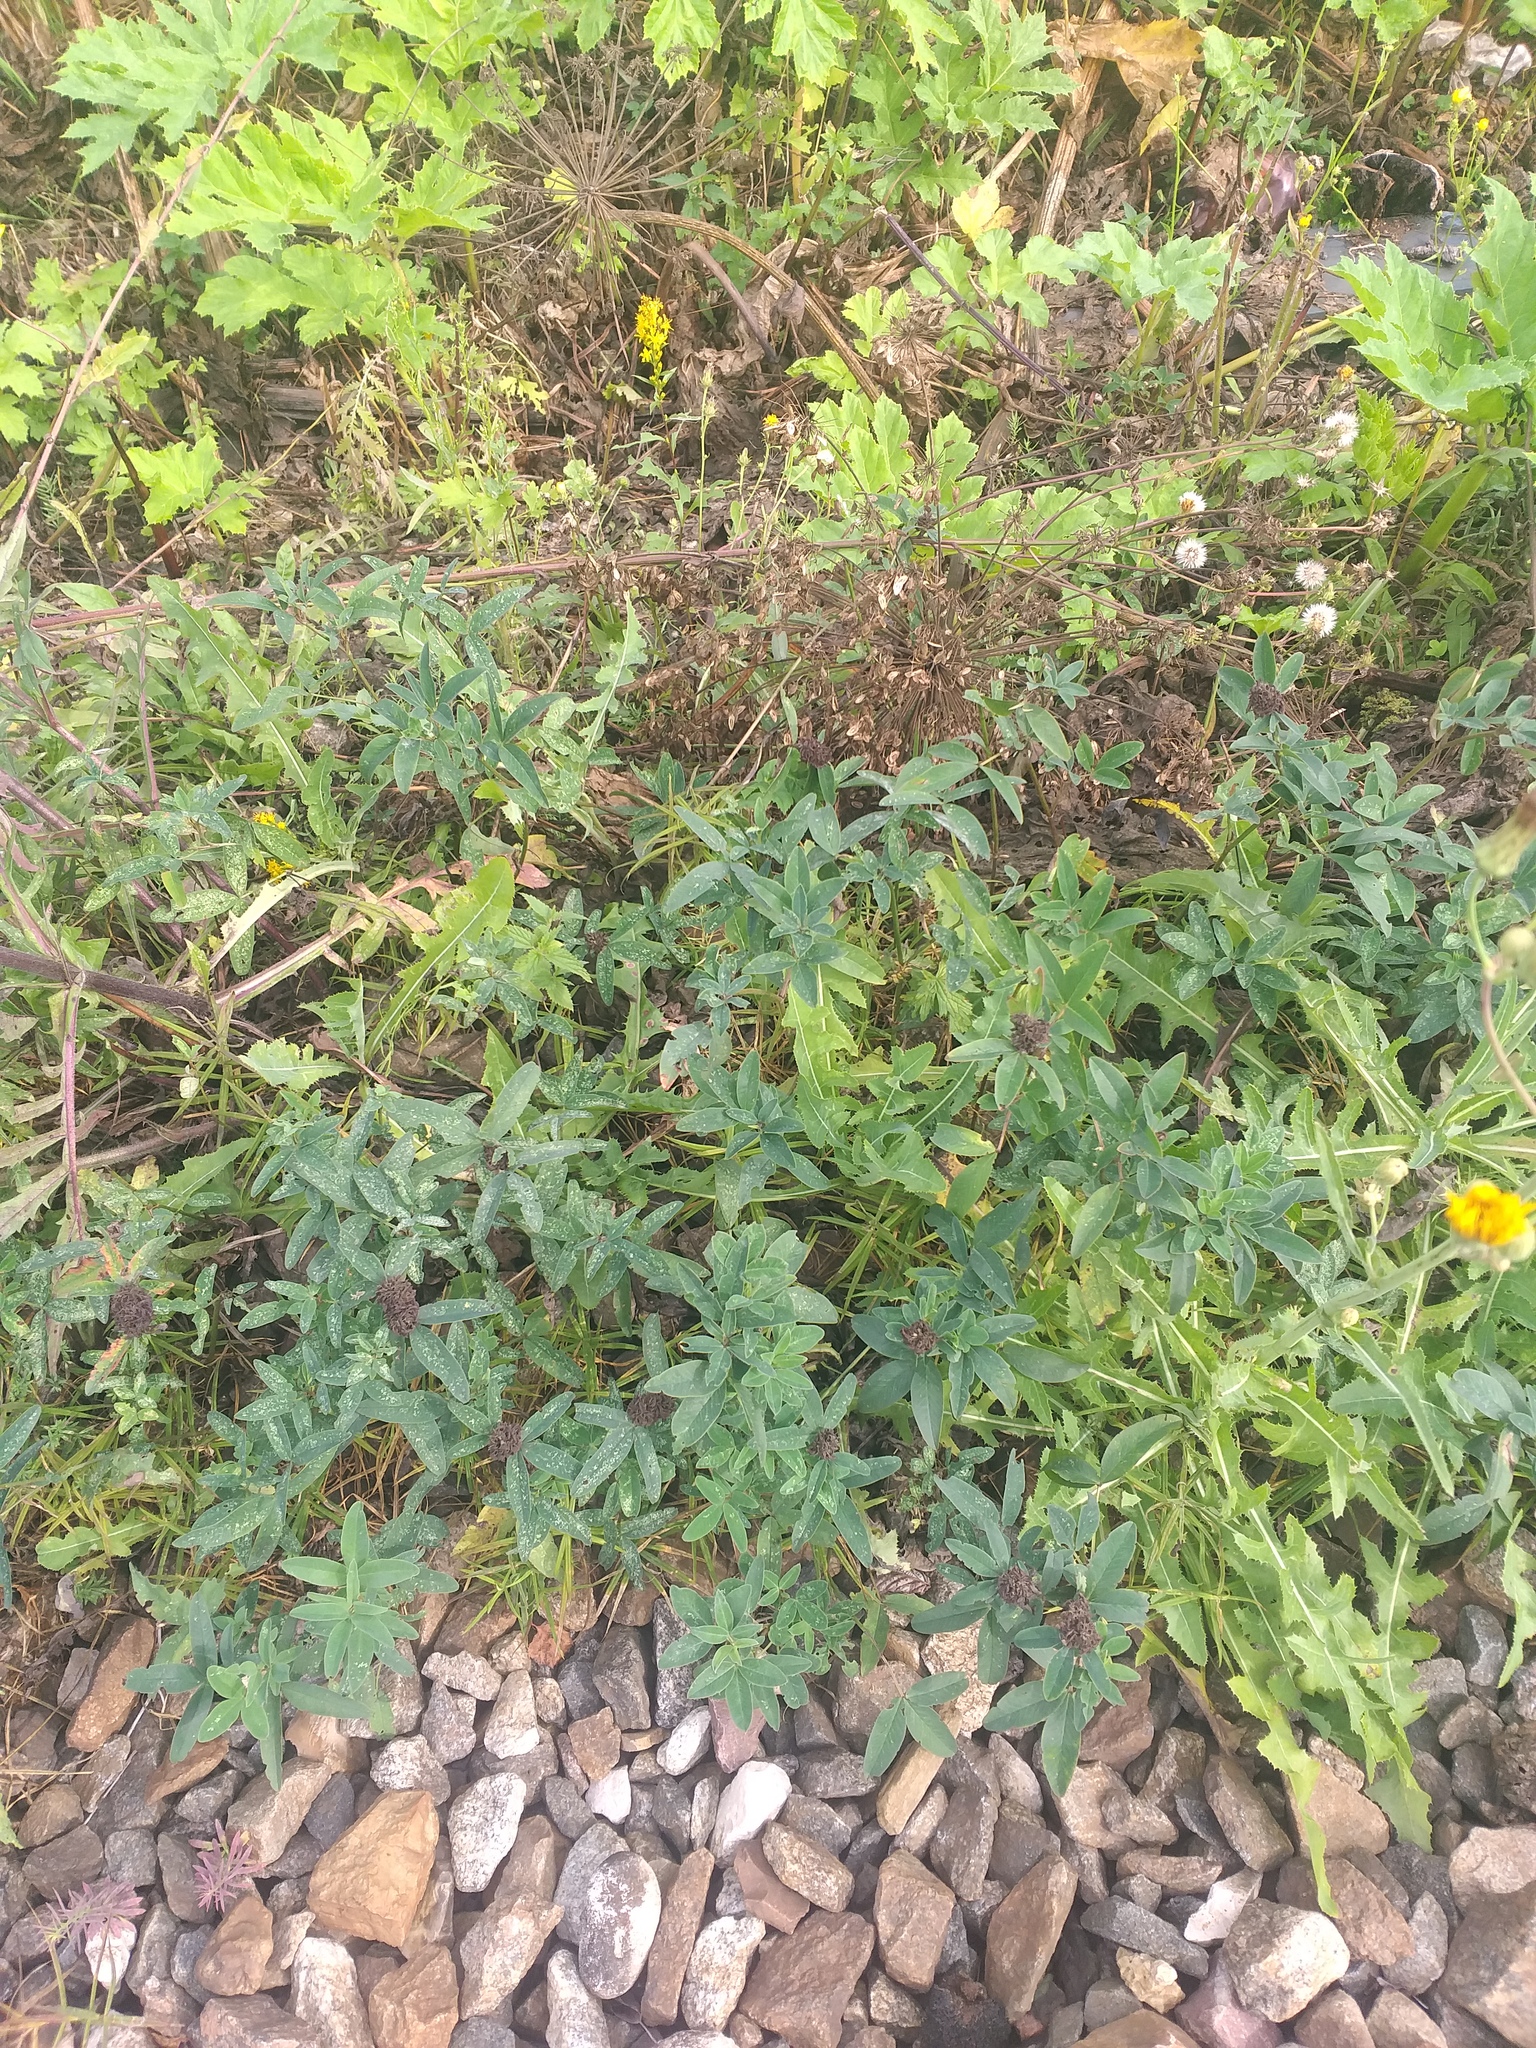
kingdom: Plantae
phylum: Tracheophyta
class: Magnoliopsida
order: Fabales
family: Fabaceae
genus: Trifolium
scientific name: Trifolium medium
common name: Zigzag clover
